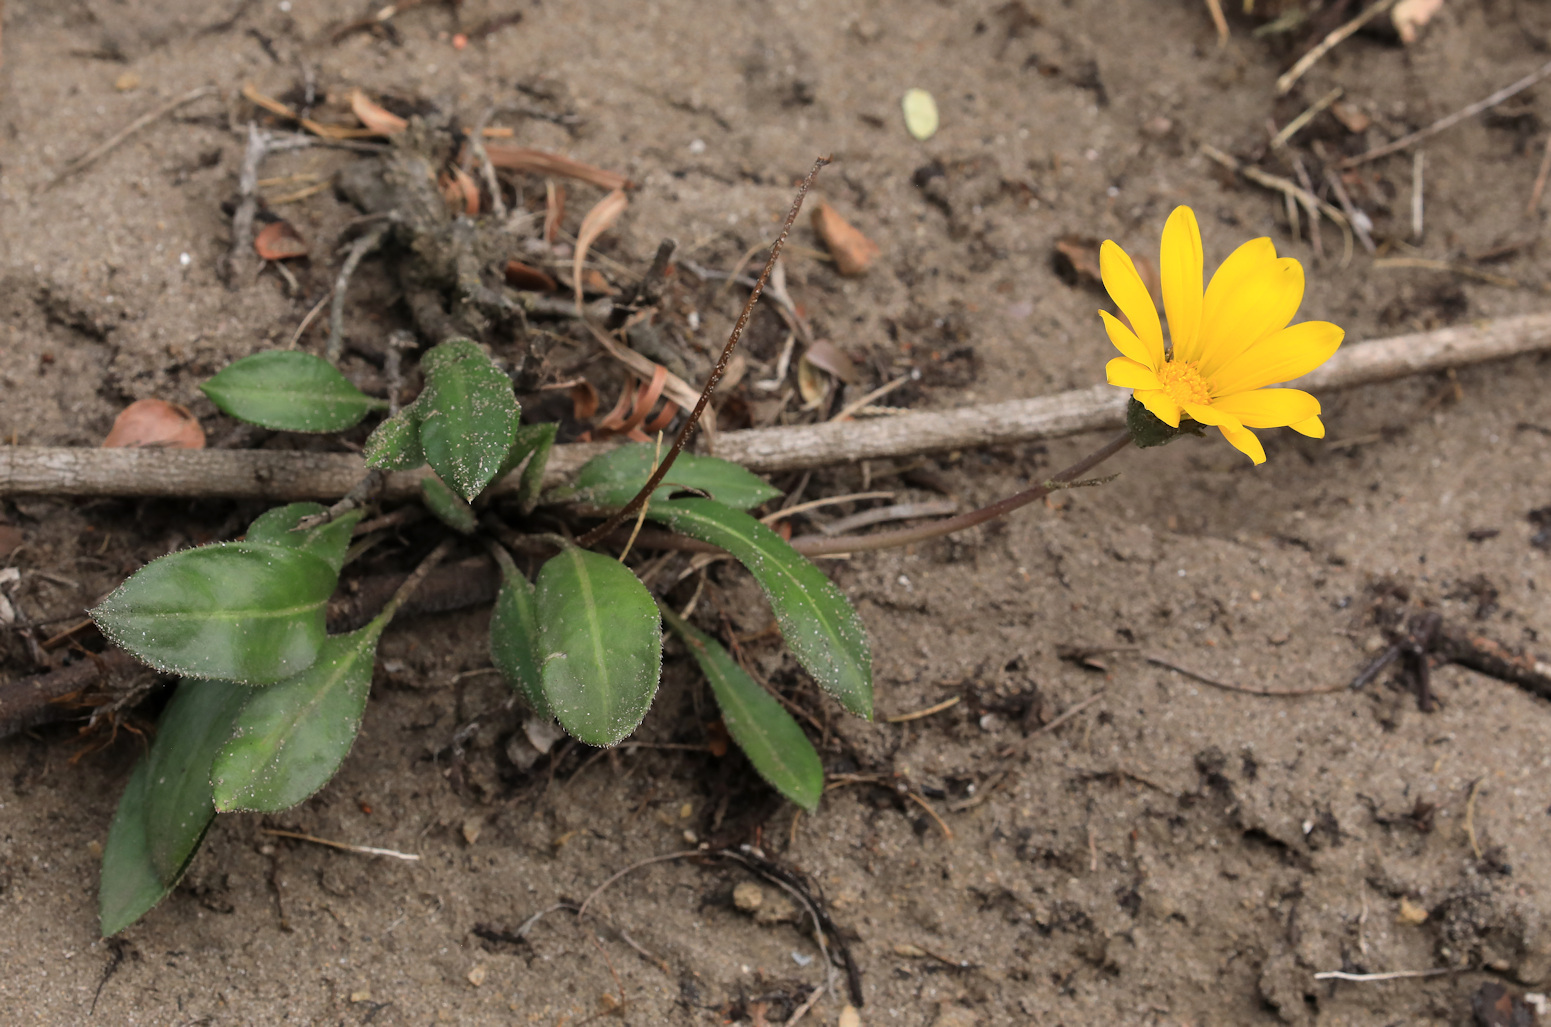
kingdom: Plantae
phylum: Tracheophyta
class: Magnoliopsida
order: Asterales
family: Asteraceae
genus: Gazania
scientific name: Gazania linearis
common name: Treasureflower
